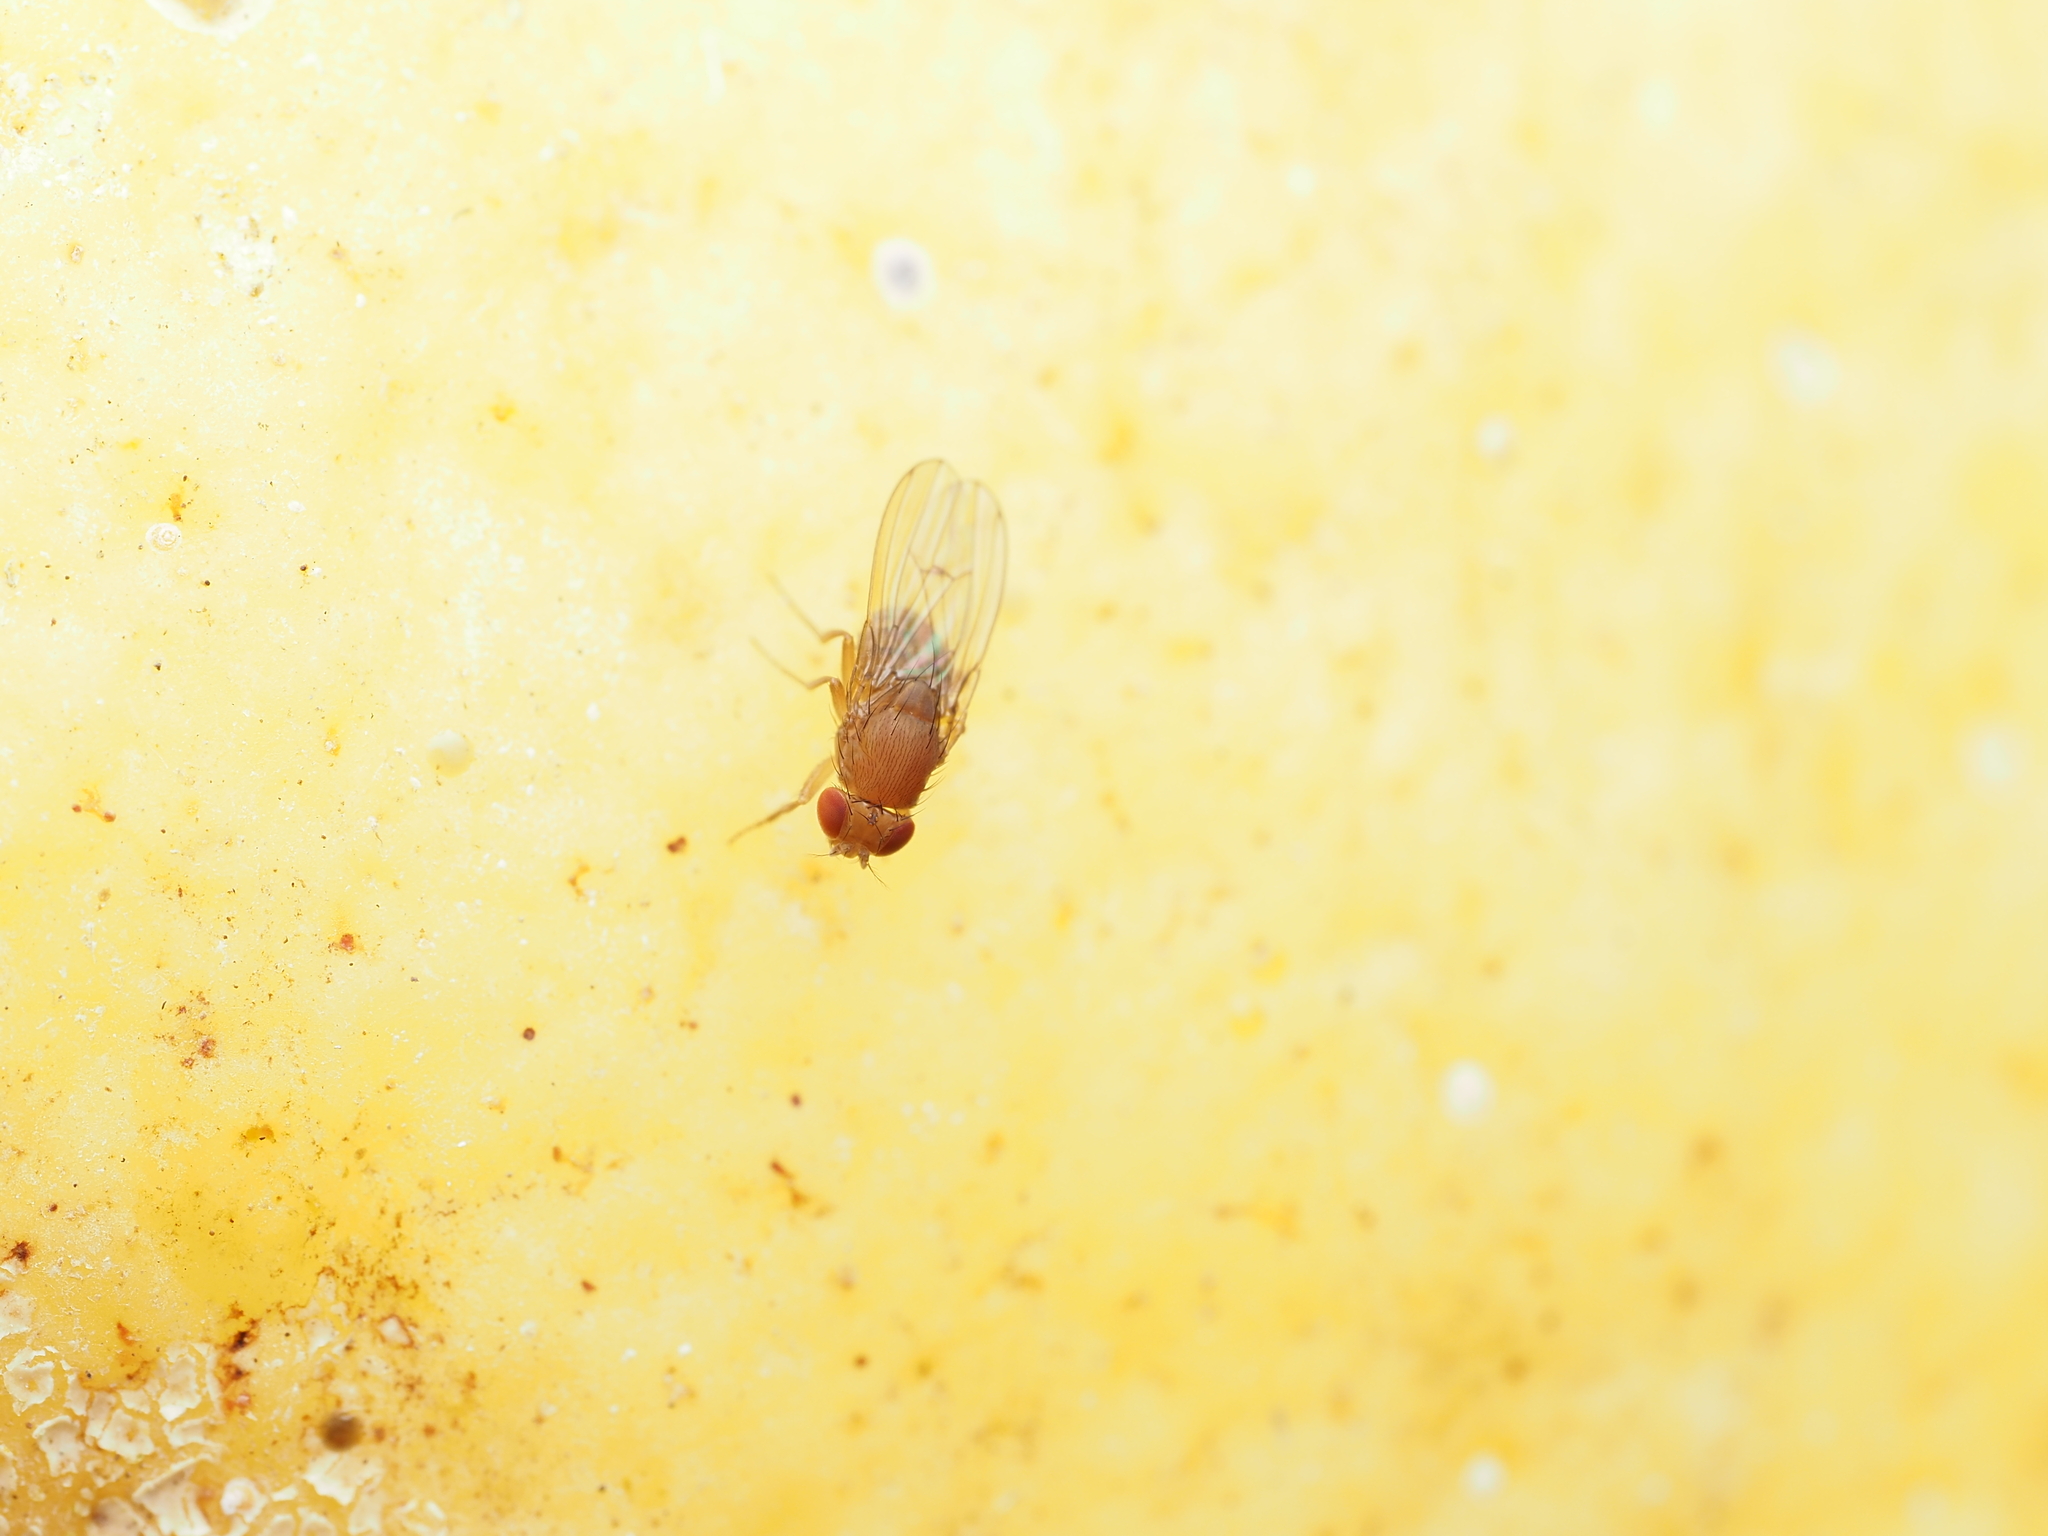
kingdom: Animalia
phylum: Arthropoda
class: Insecta
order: Diptera
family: Drosophilidae
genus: Drosophila
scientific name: Drosophila immigrans
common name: Pomace fly
